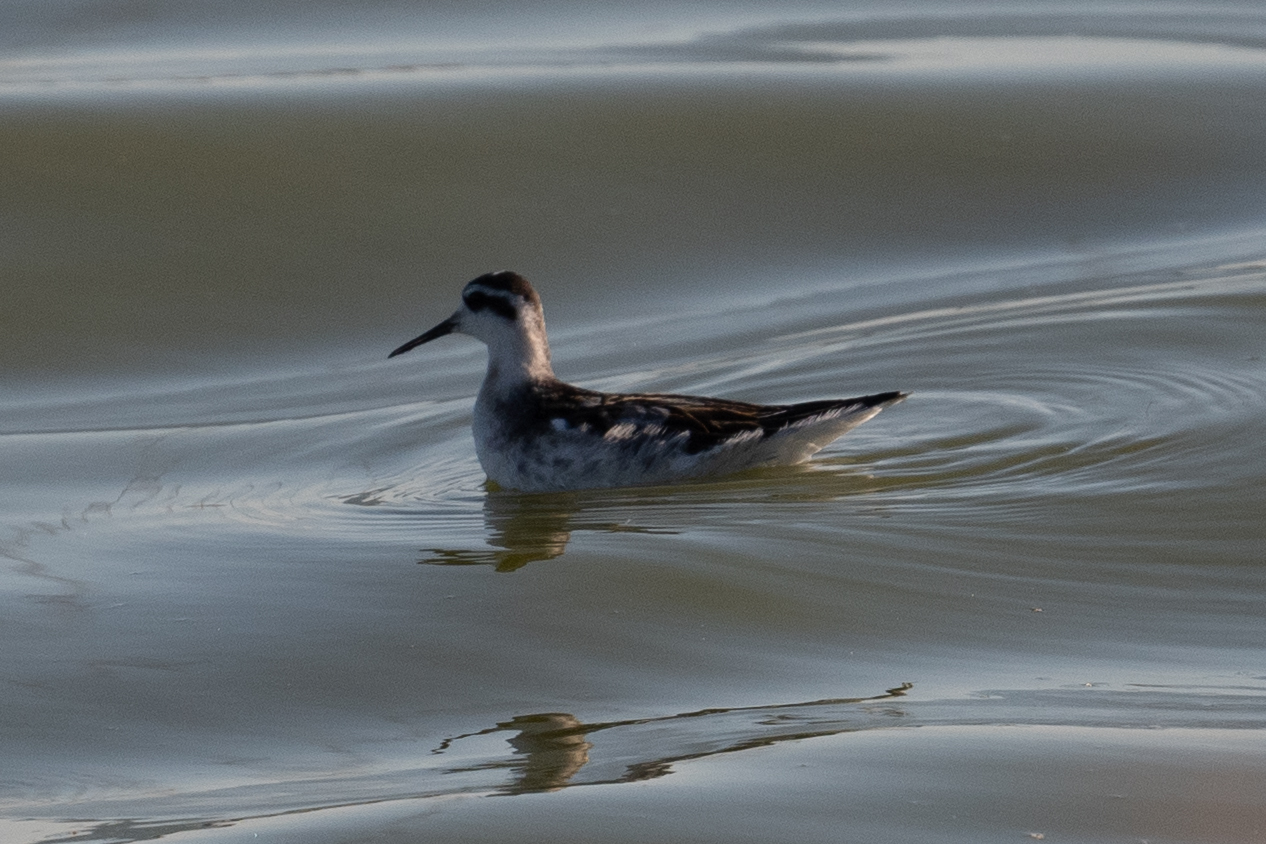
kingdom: Animalia
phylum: Chordata
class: Aves
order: Charadriiformes
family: Scolopacidae
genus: Phalaropus
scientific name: Phalaropus lobatus
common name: Red-necked phalarope
